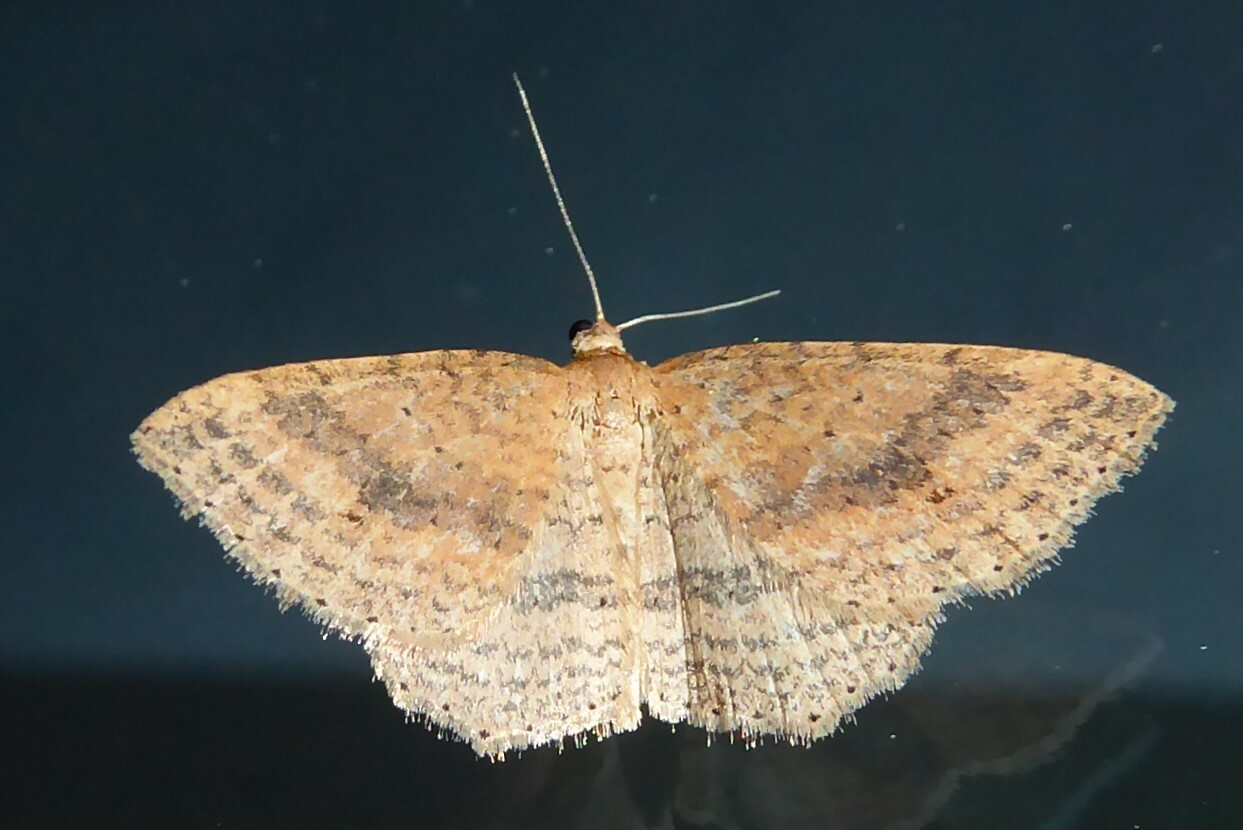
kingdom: Animalia
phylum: Arthropoda
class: Insecta
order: Lepidoptera
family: Geometridae
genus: Epicyme
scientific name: Epicyme rubropunctaria
